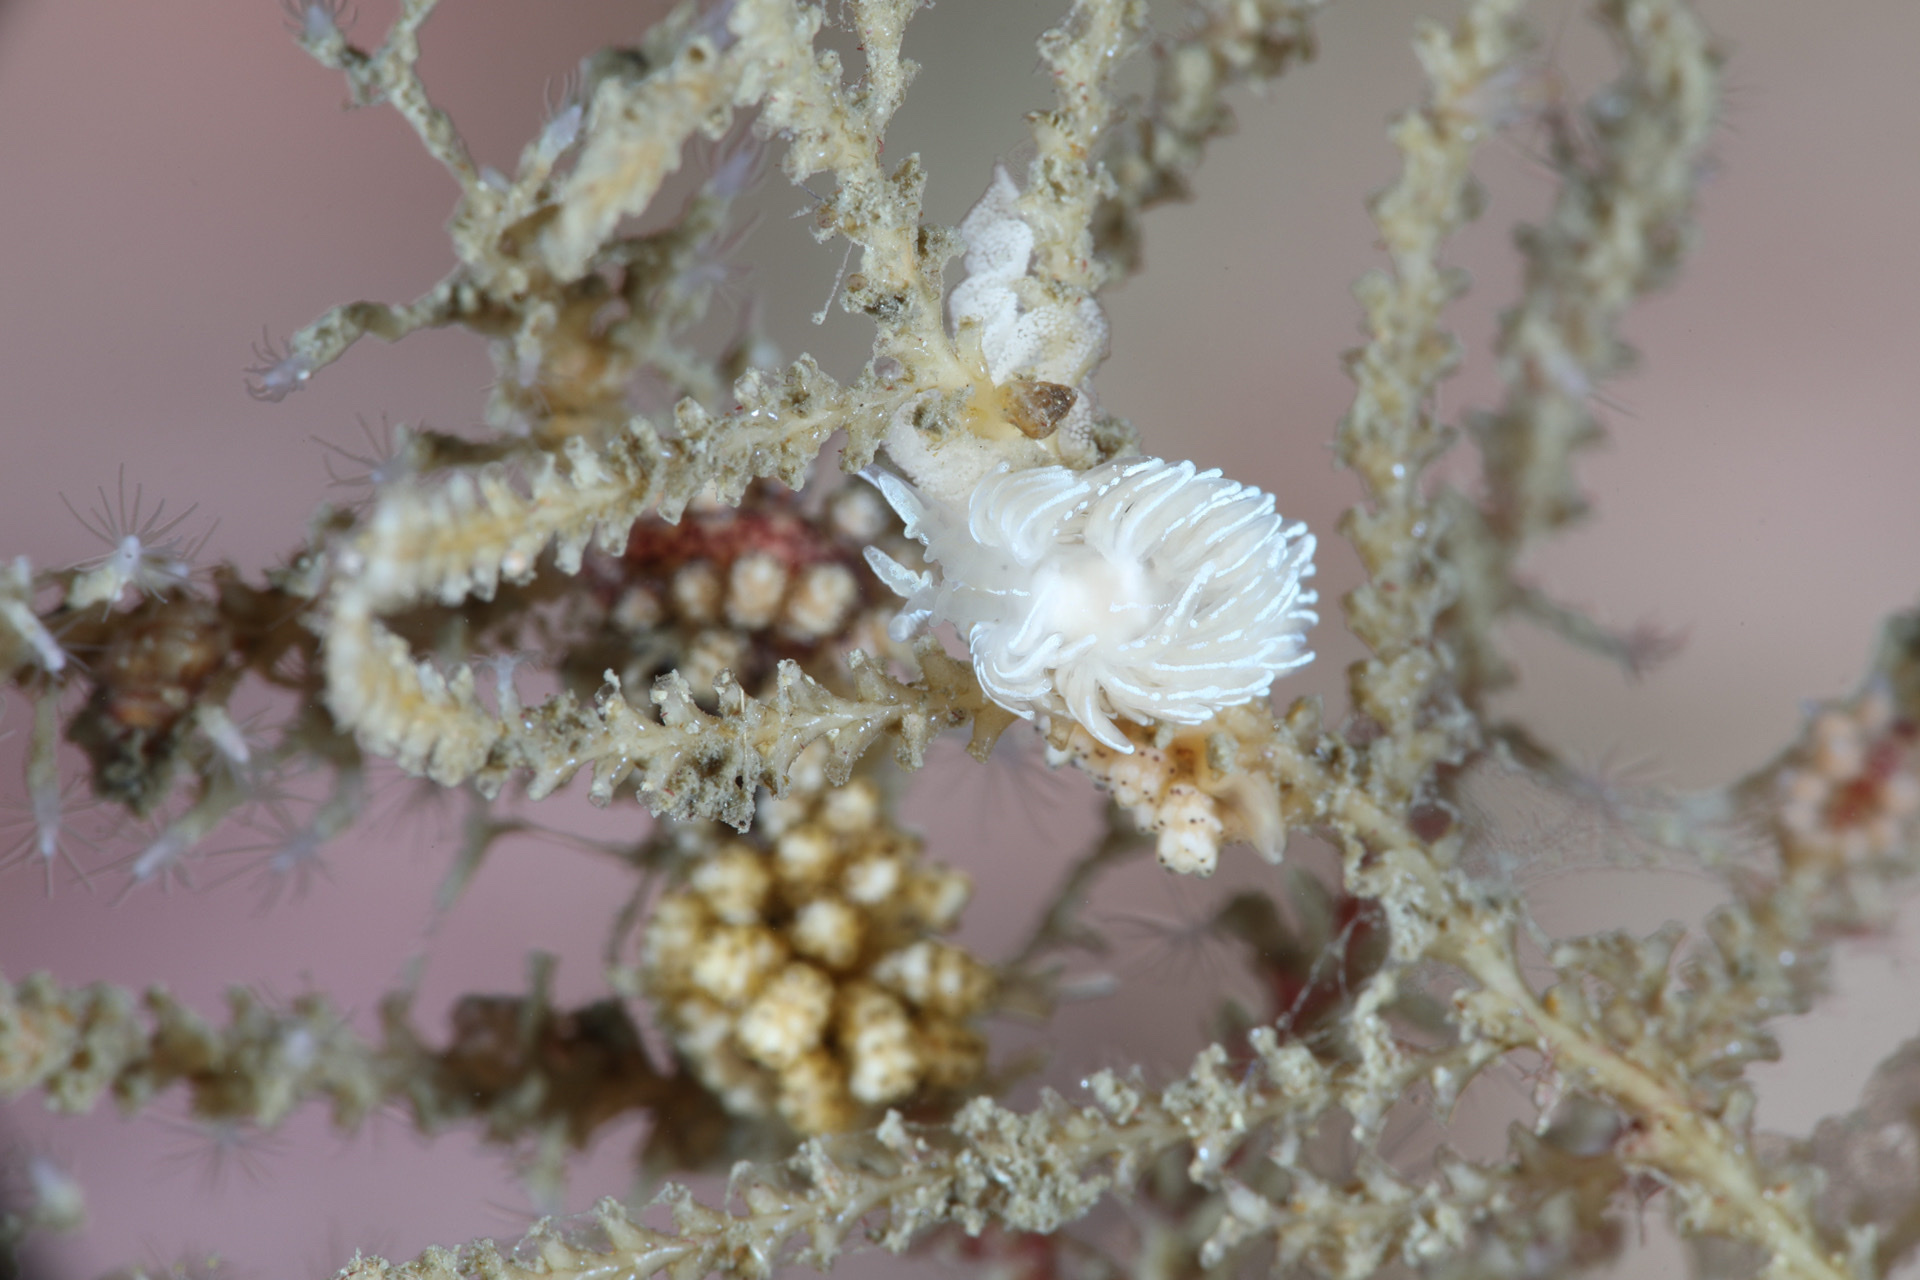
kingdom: Animalia
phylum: Mollusca
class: Gastropoda
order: Nudibranchia
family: Facelinidae
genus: Favorinus
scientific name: Favorinus blianus
